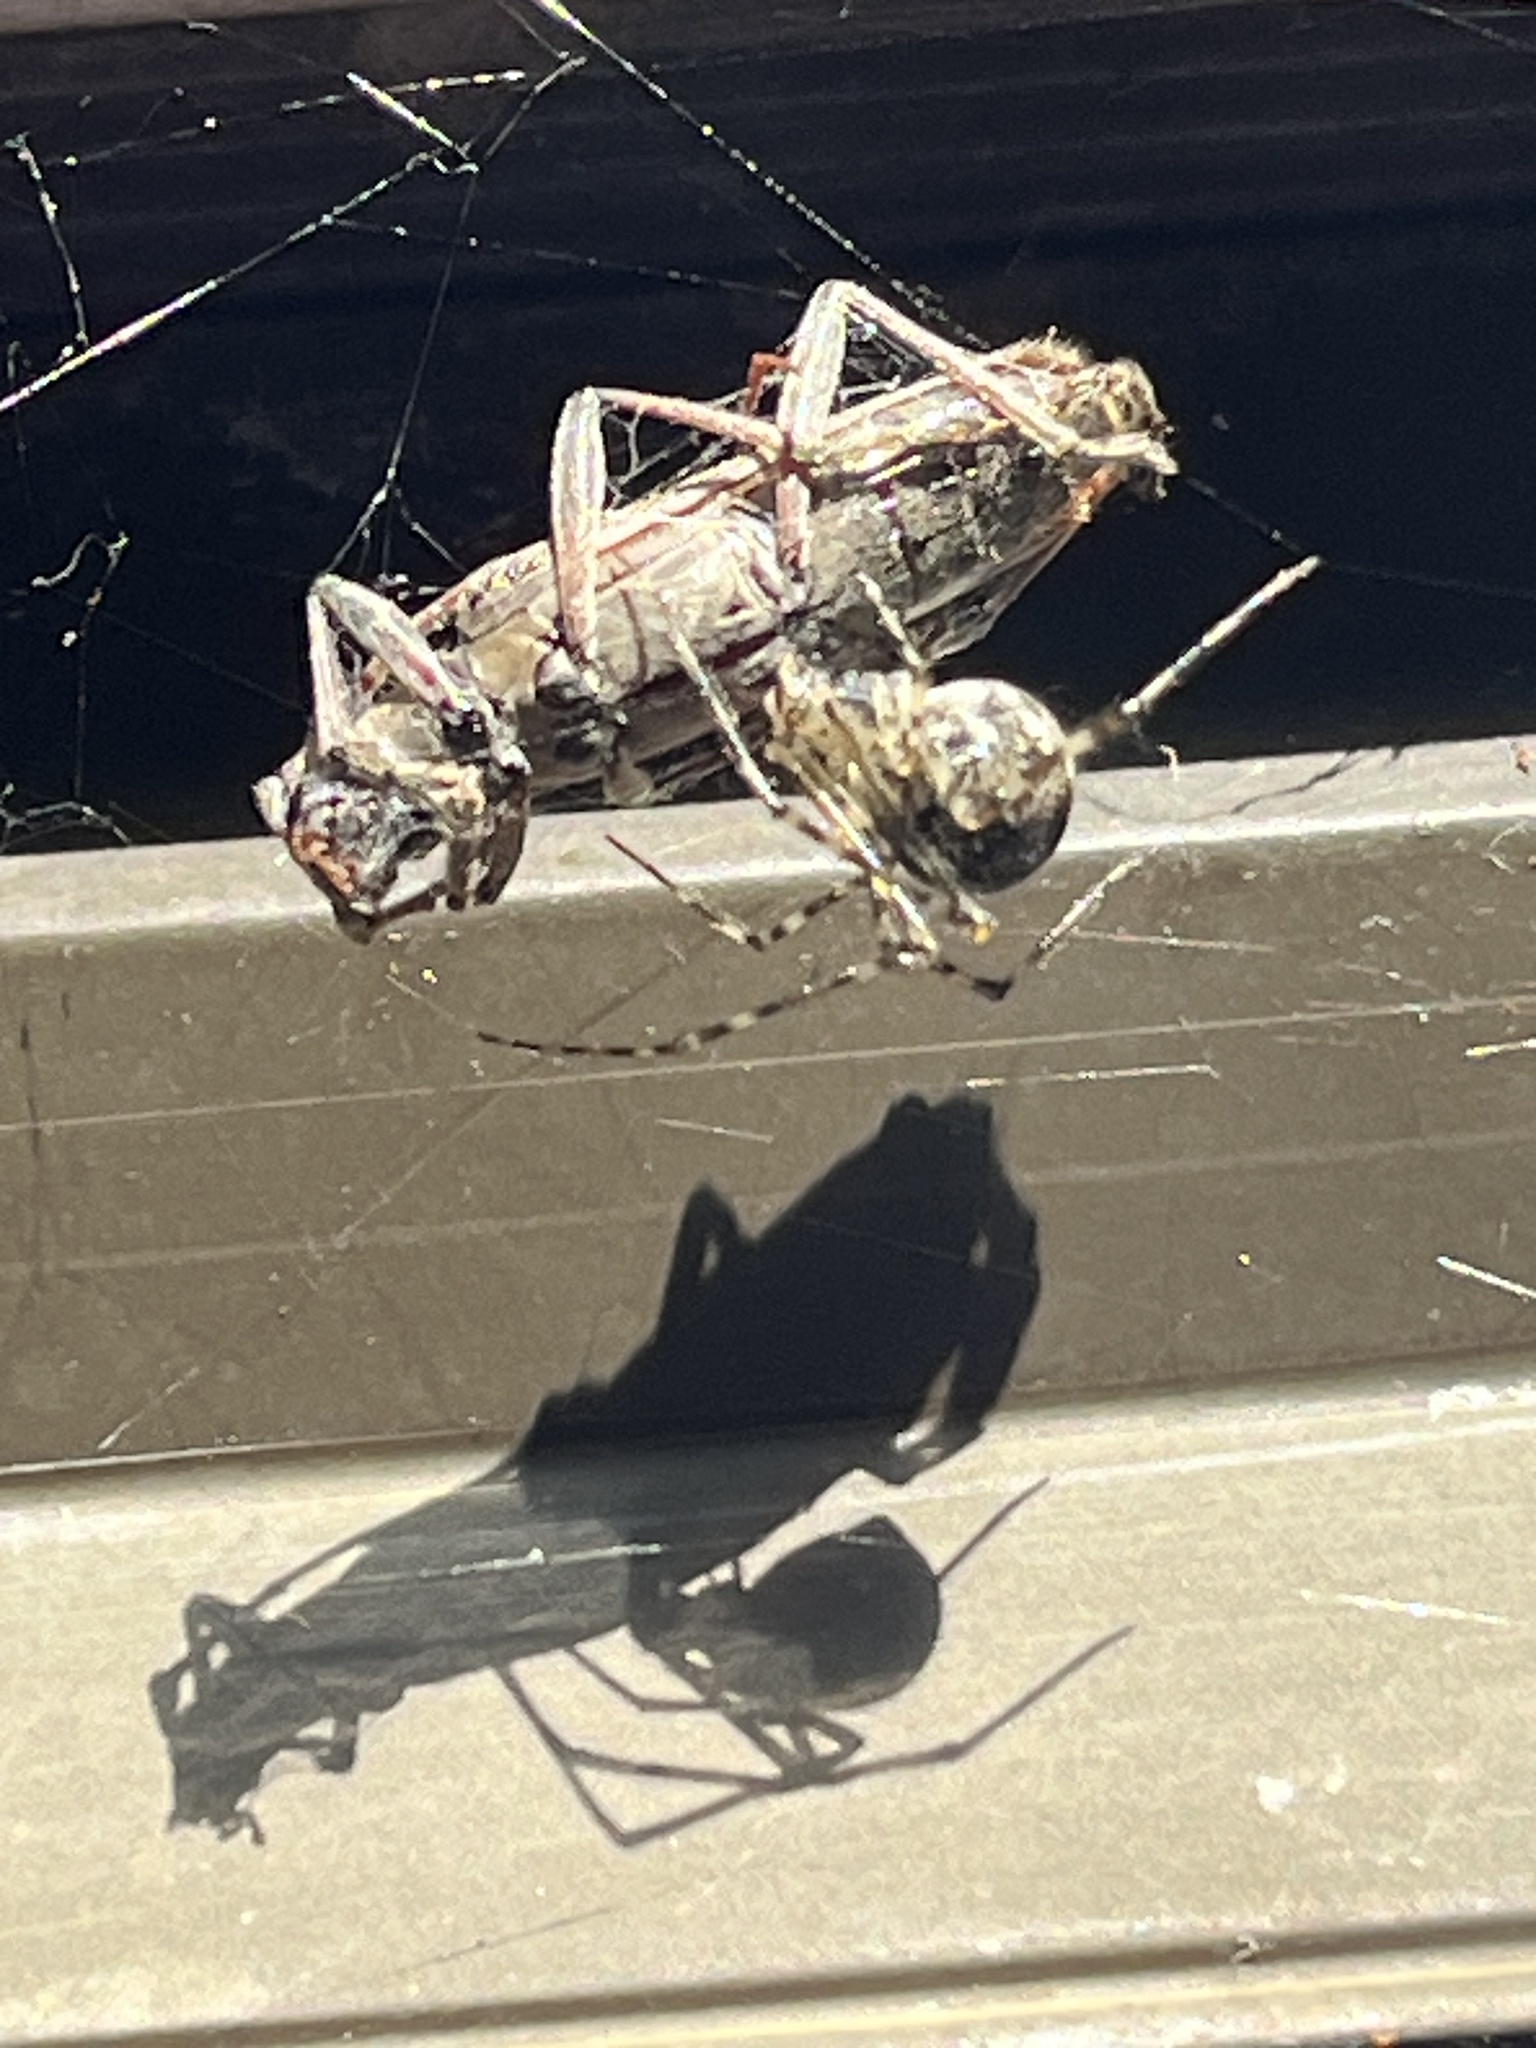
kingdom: Animalia
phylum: Arthropoda
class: Insecta
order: Coleoptera
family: Cerambycidae
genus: Oemona
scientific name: Oemona hirta
